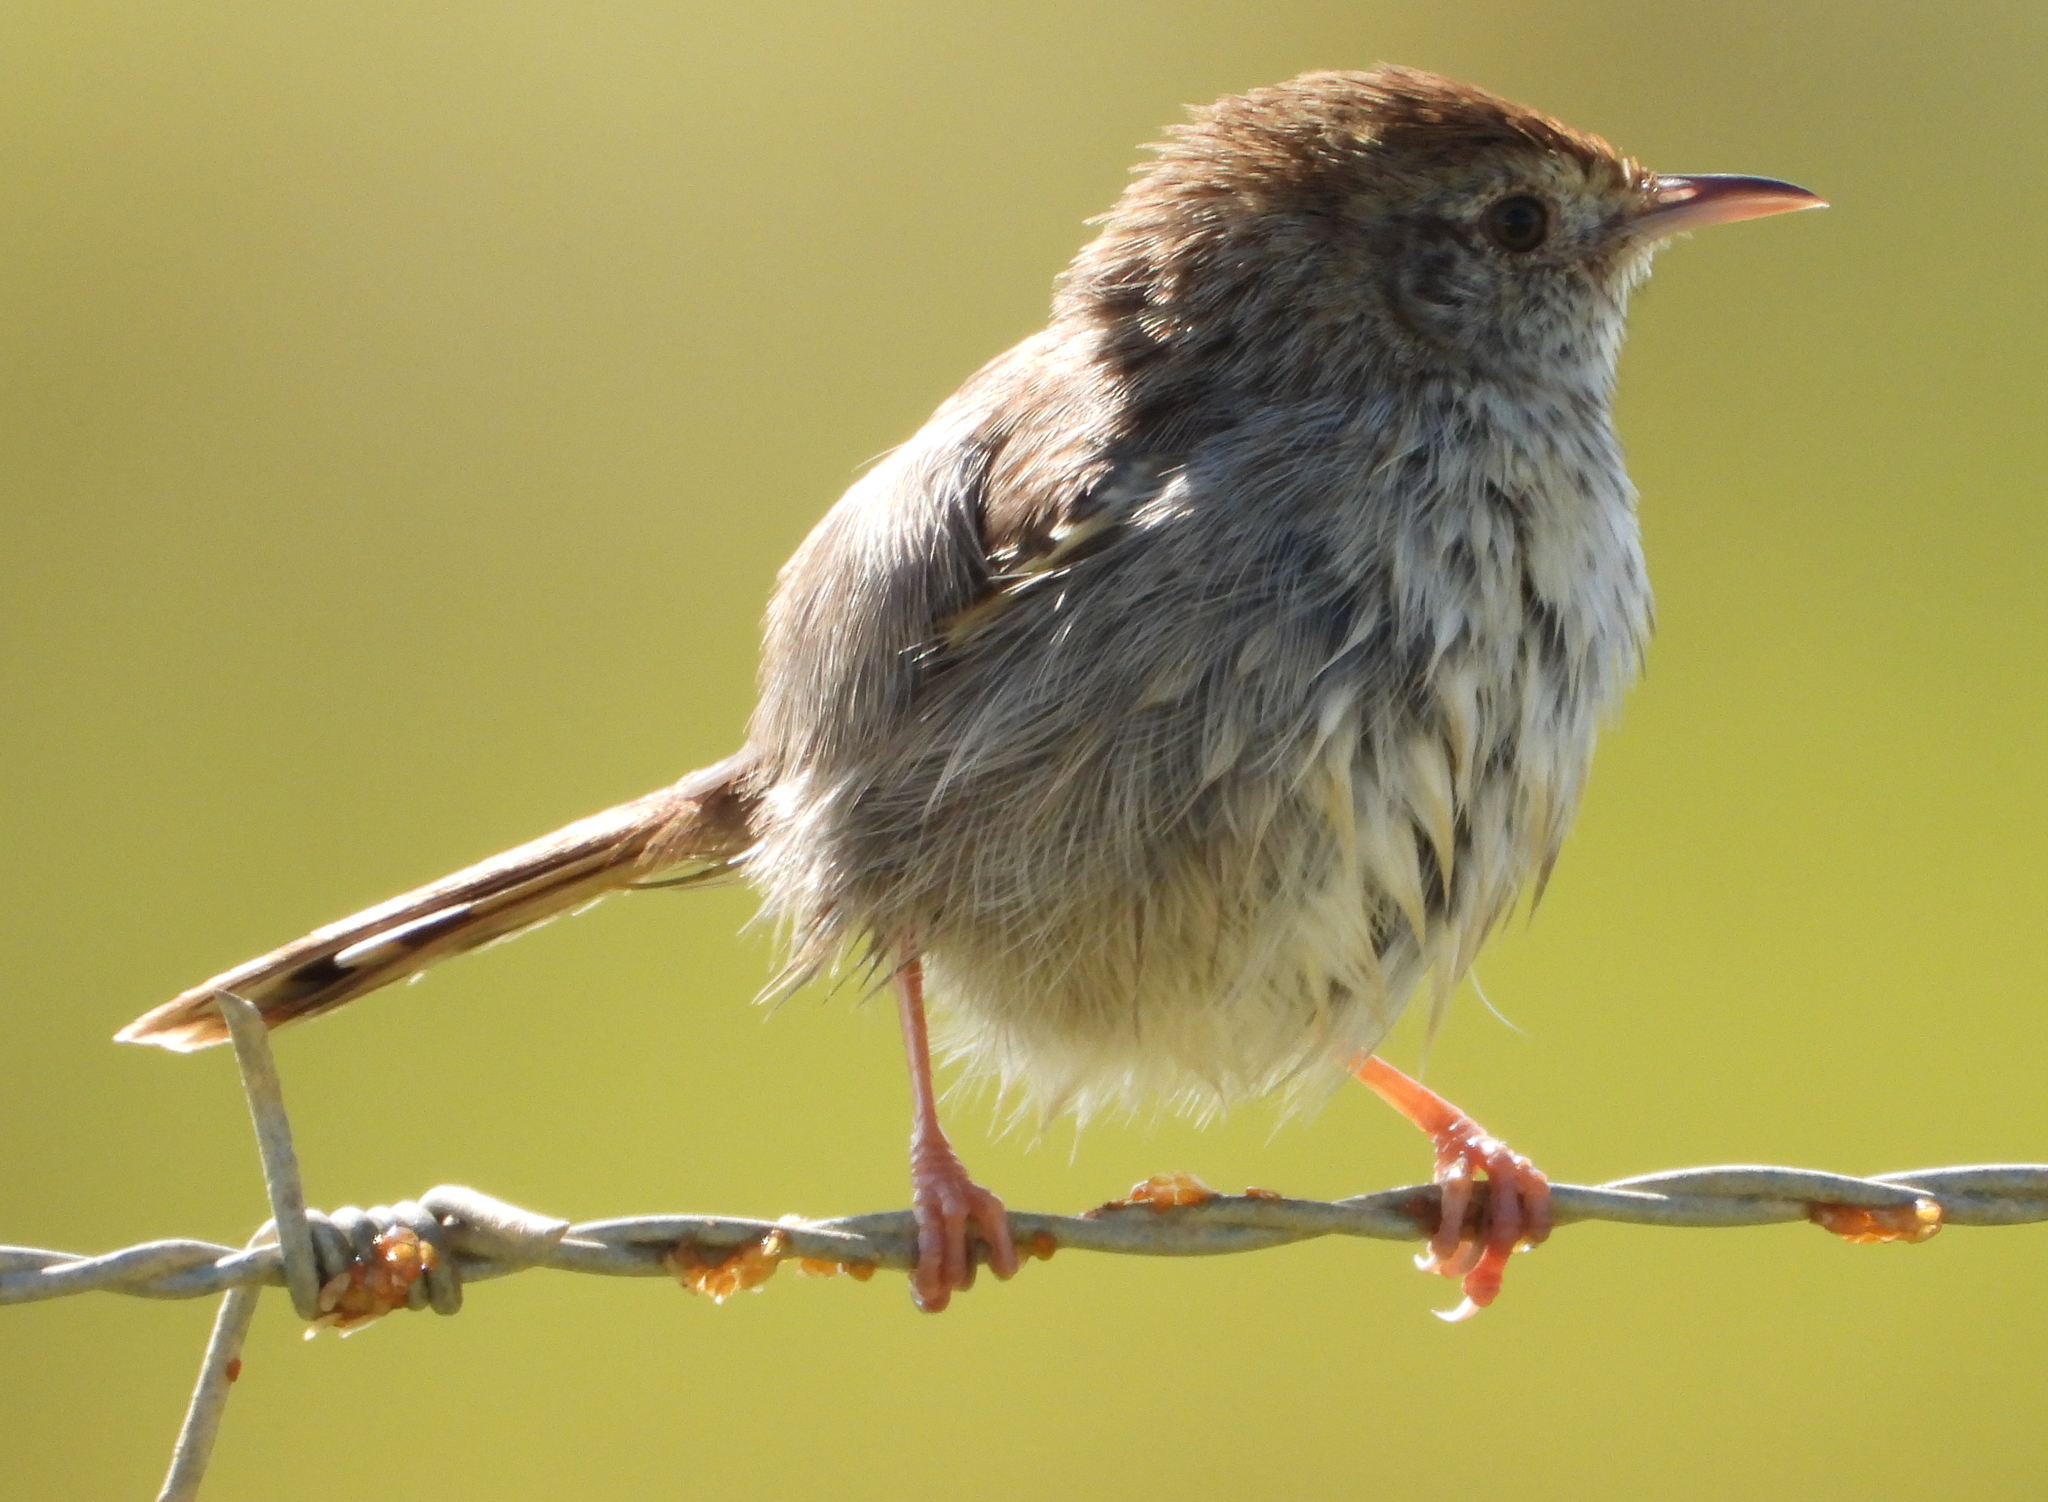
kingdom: Animalia
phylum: Chordata
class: Aves
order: Passeriformes
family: Cisticolidae
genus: Cisticola
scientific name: Cisticola subruficapilla
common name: Grey-backed cisticola
